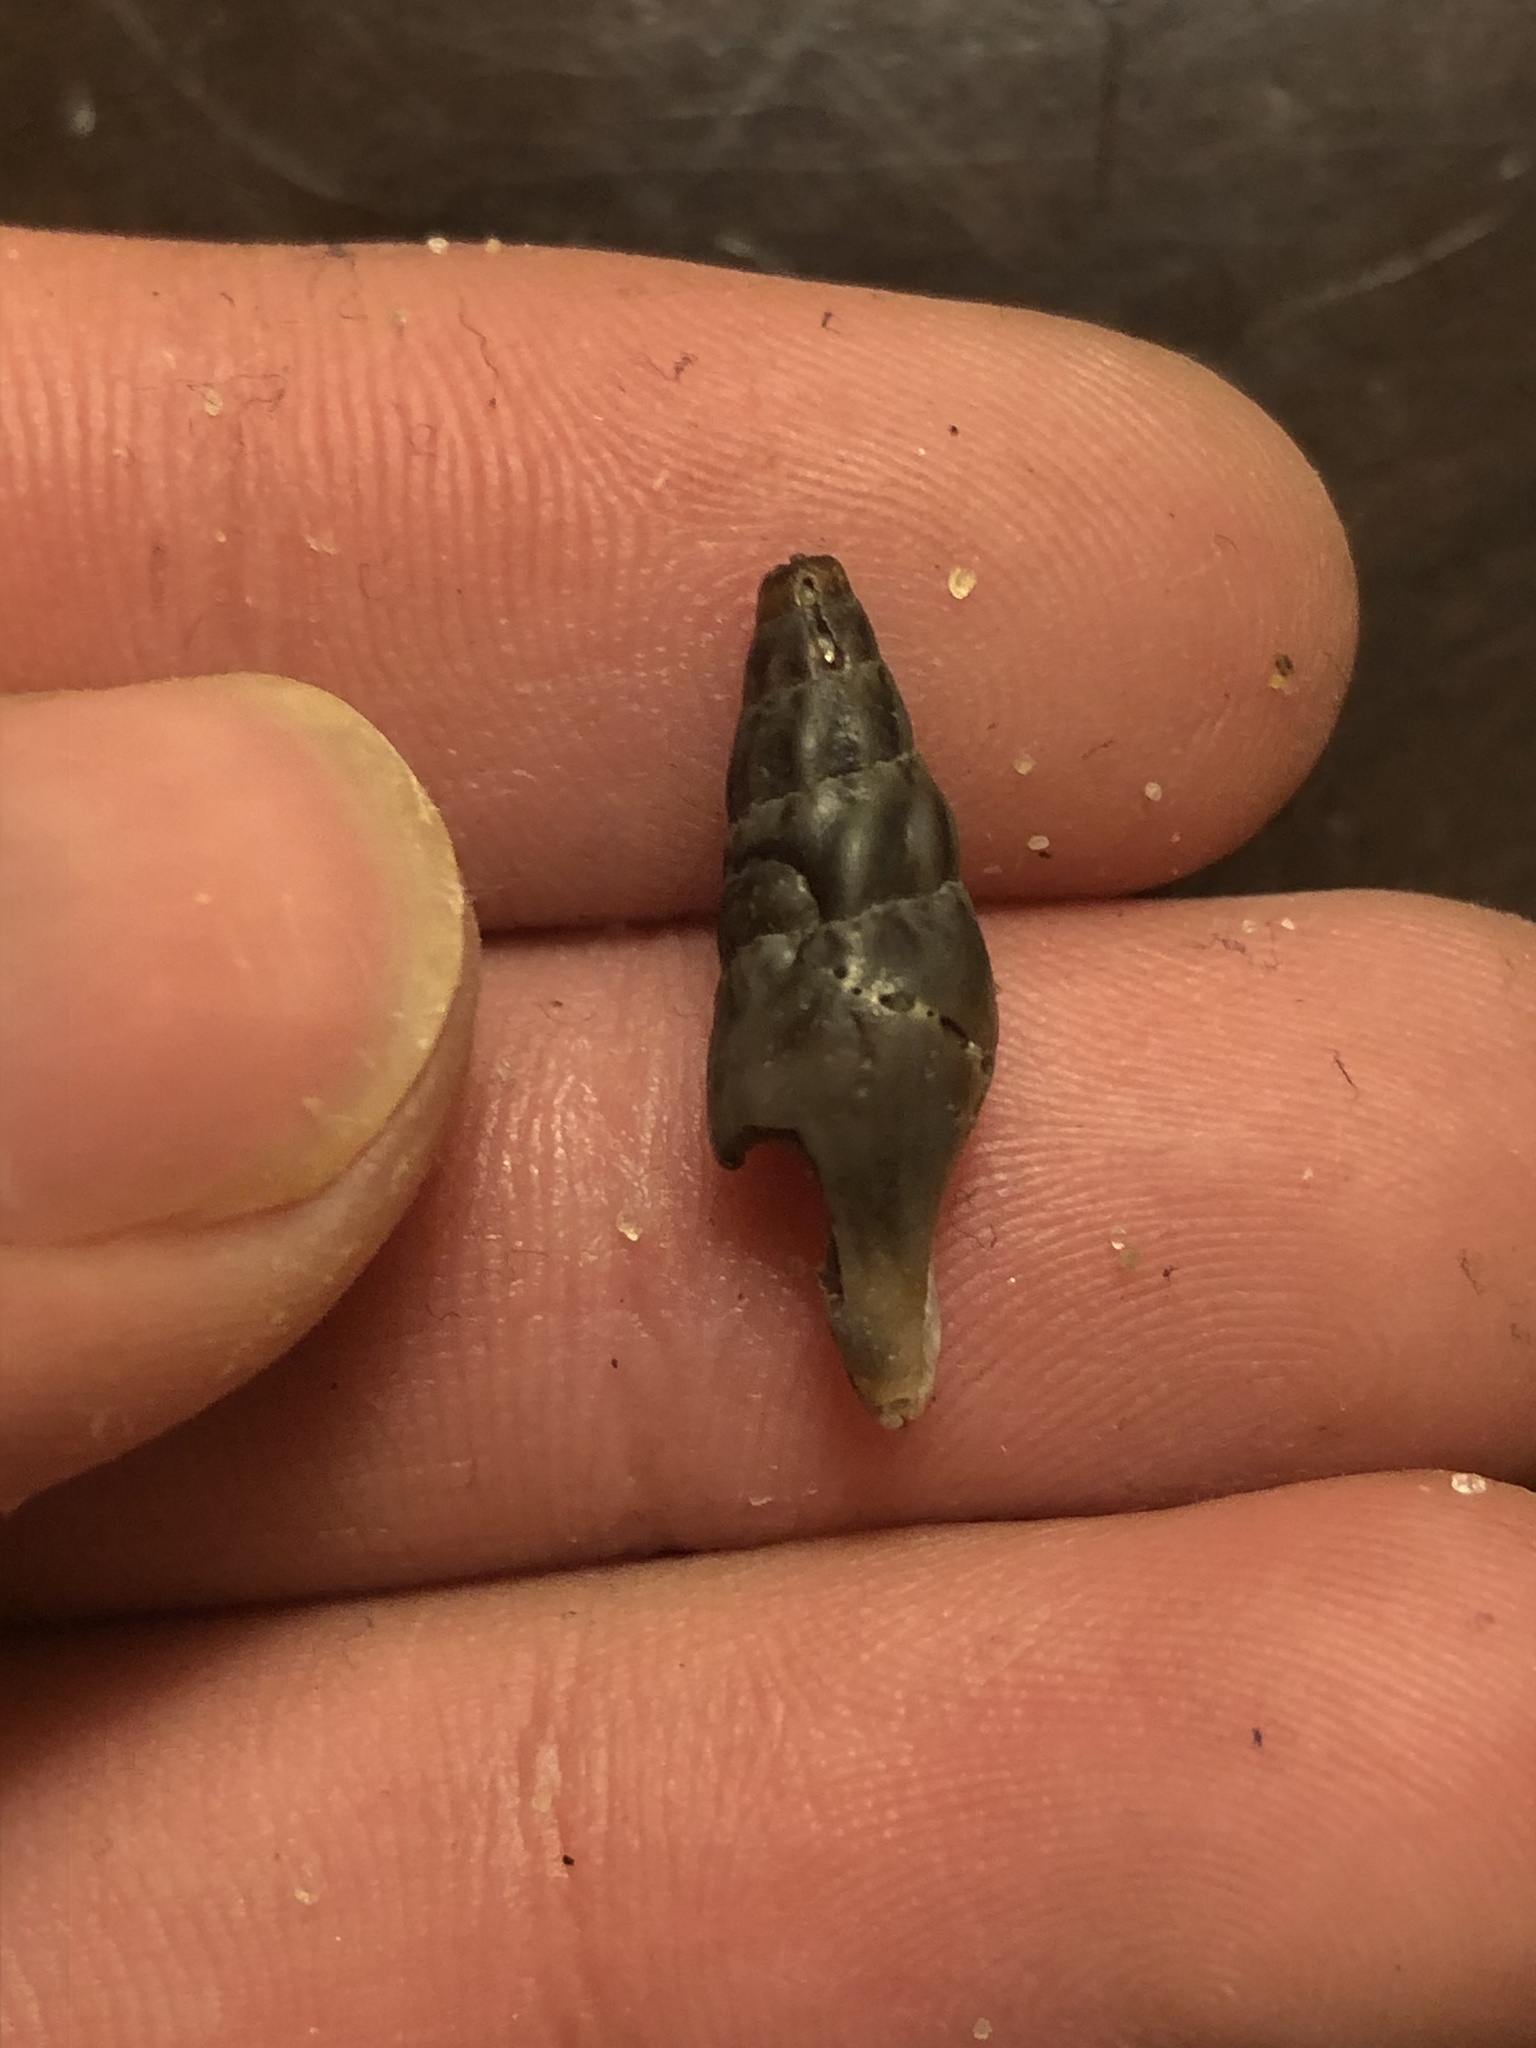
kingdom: Animalia
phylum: Mollusca
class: Gastropoda
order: Neogastropoda
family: Pseudomelatomidae
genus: Pseudomelatoma
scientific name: Pseudomelatoma penicillata
